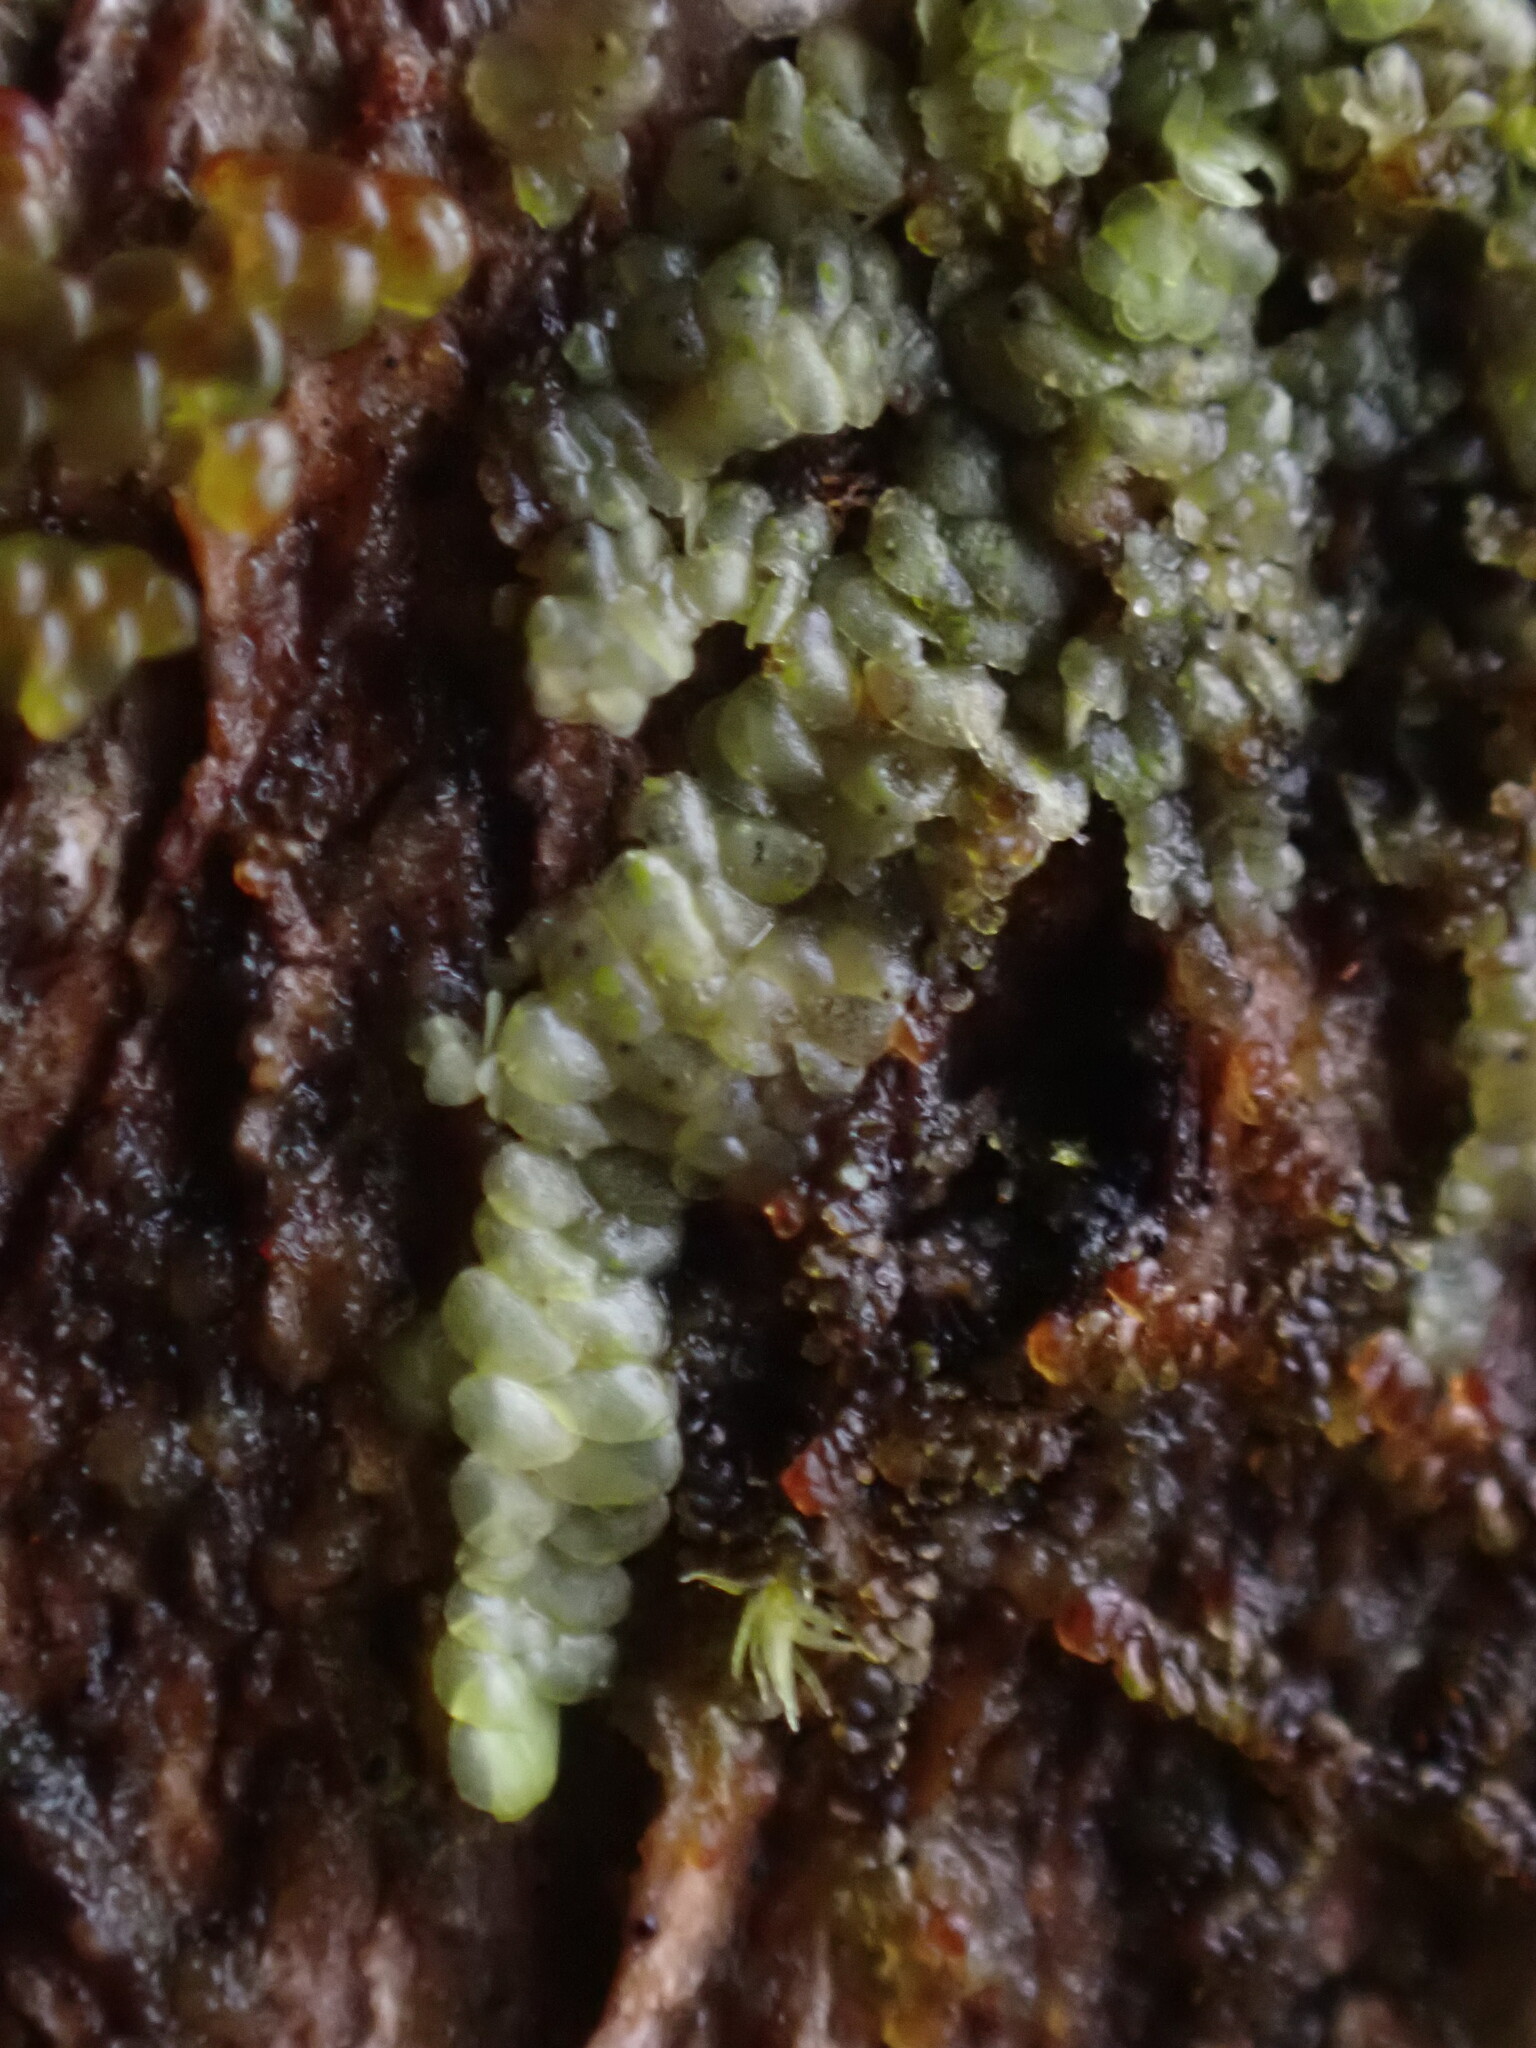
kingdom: Plantae
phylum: Marchantiophyta
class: Jungermanniopsida
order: Porellales
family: Radulaceae
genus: Radula
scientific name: Radula complanata
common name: Flat-leaved scalewort
